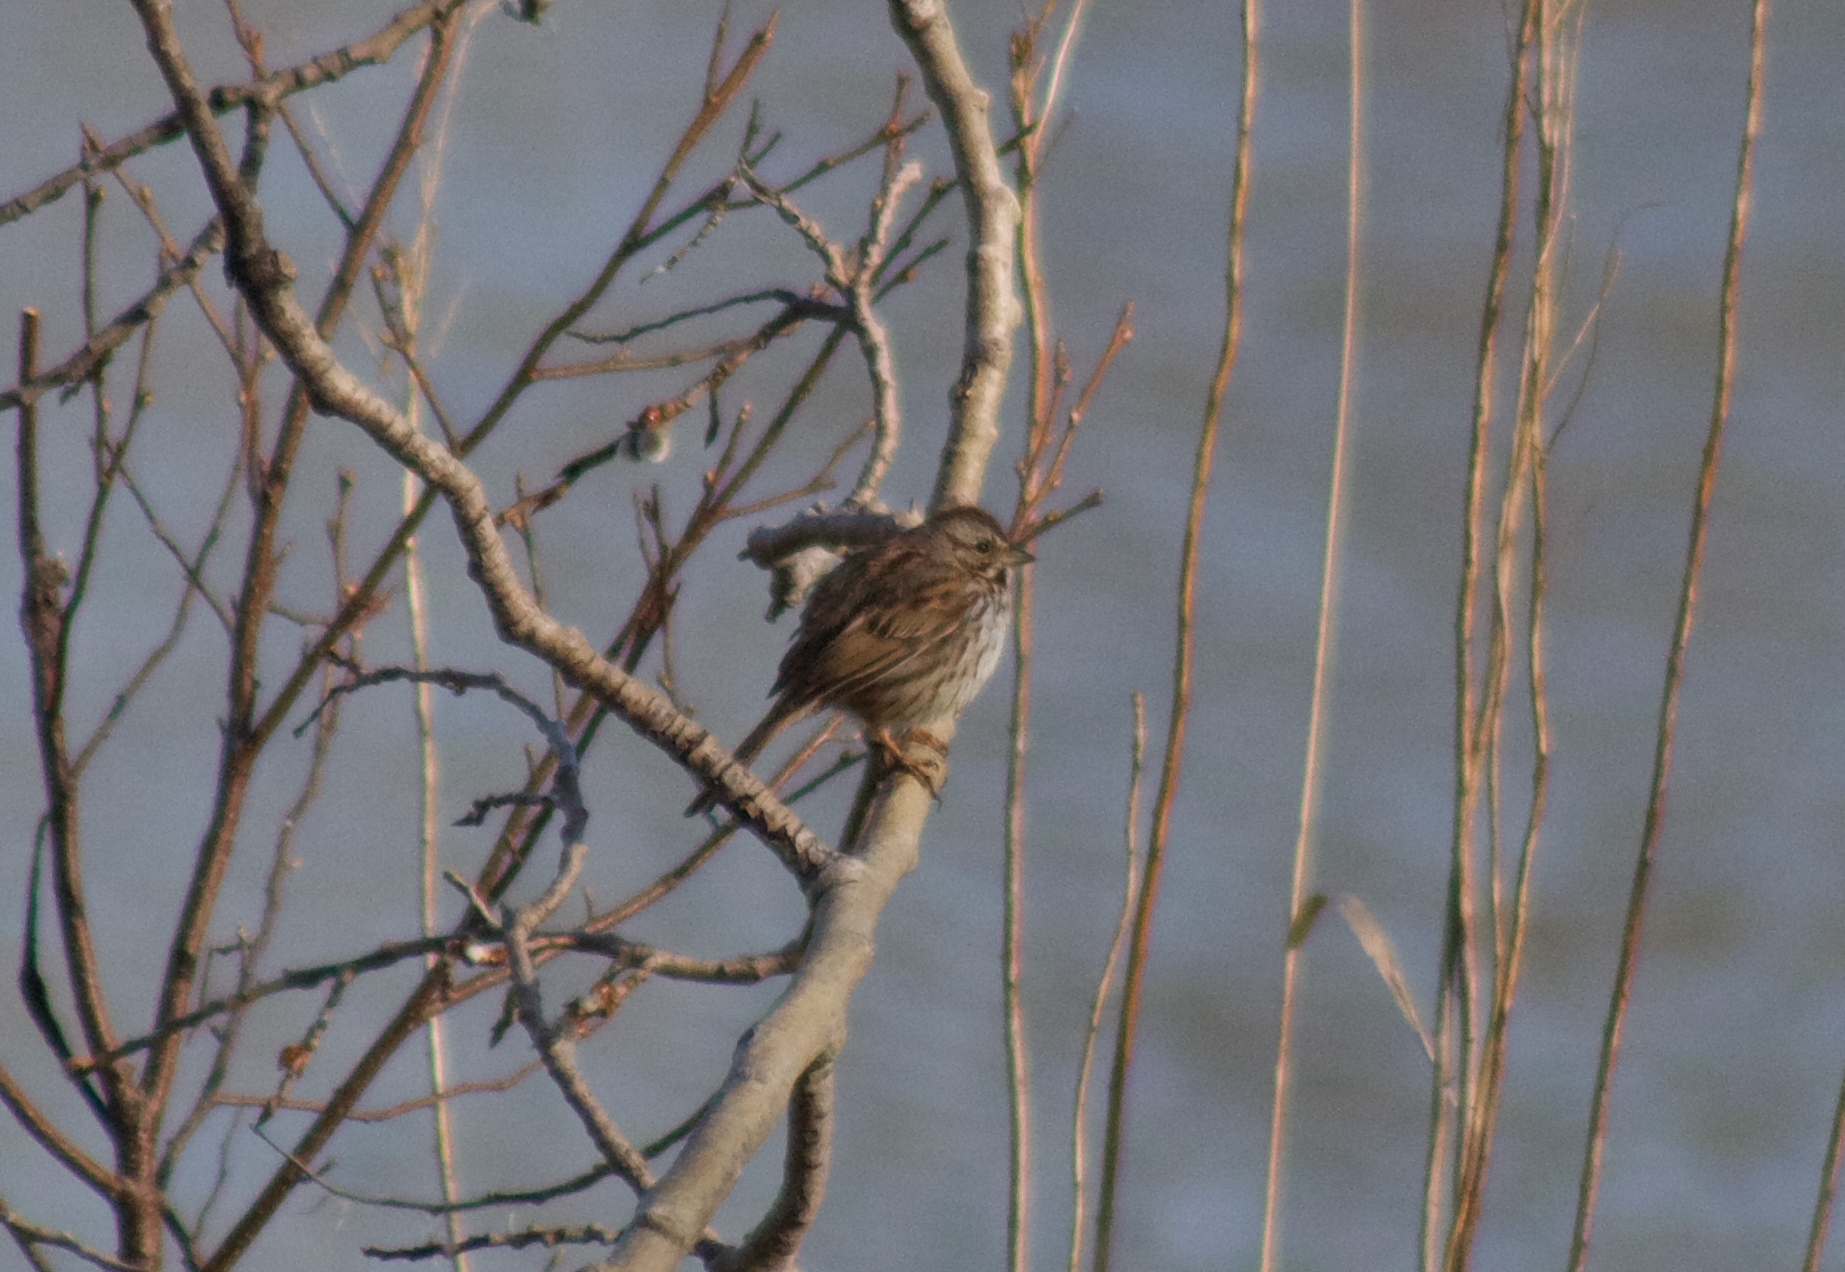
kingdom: Animalia
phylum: Chordata
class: Aves
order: Passeriformes
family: Passerellidae
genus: Melospiza
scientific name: Melospiza melodia
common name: Song sparrow
